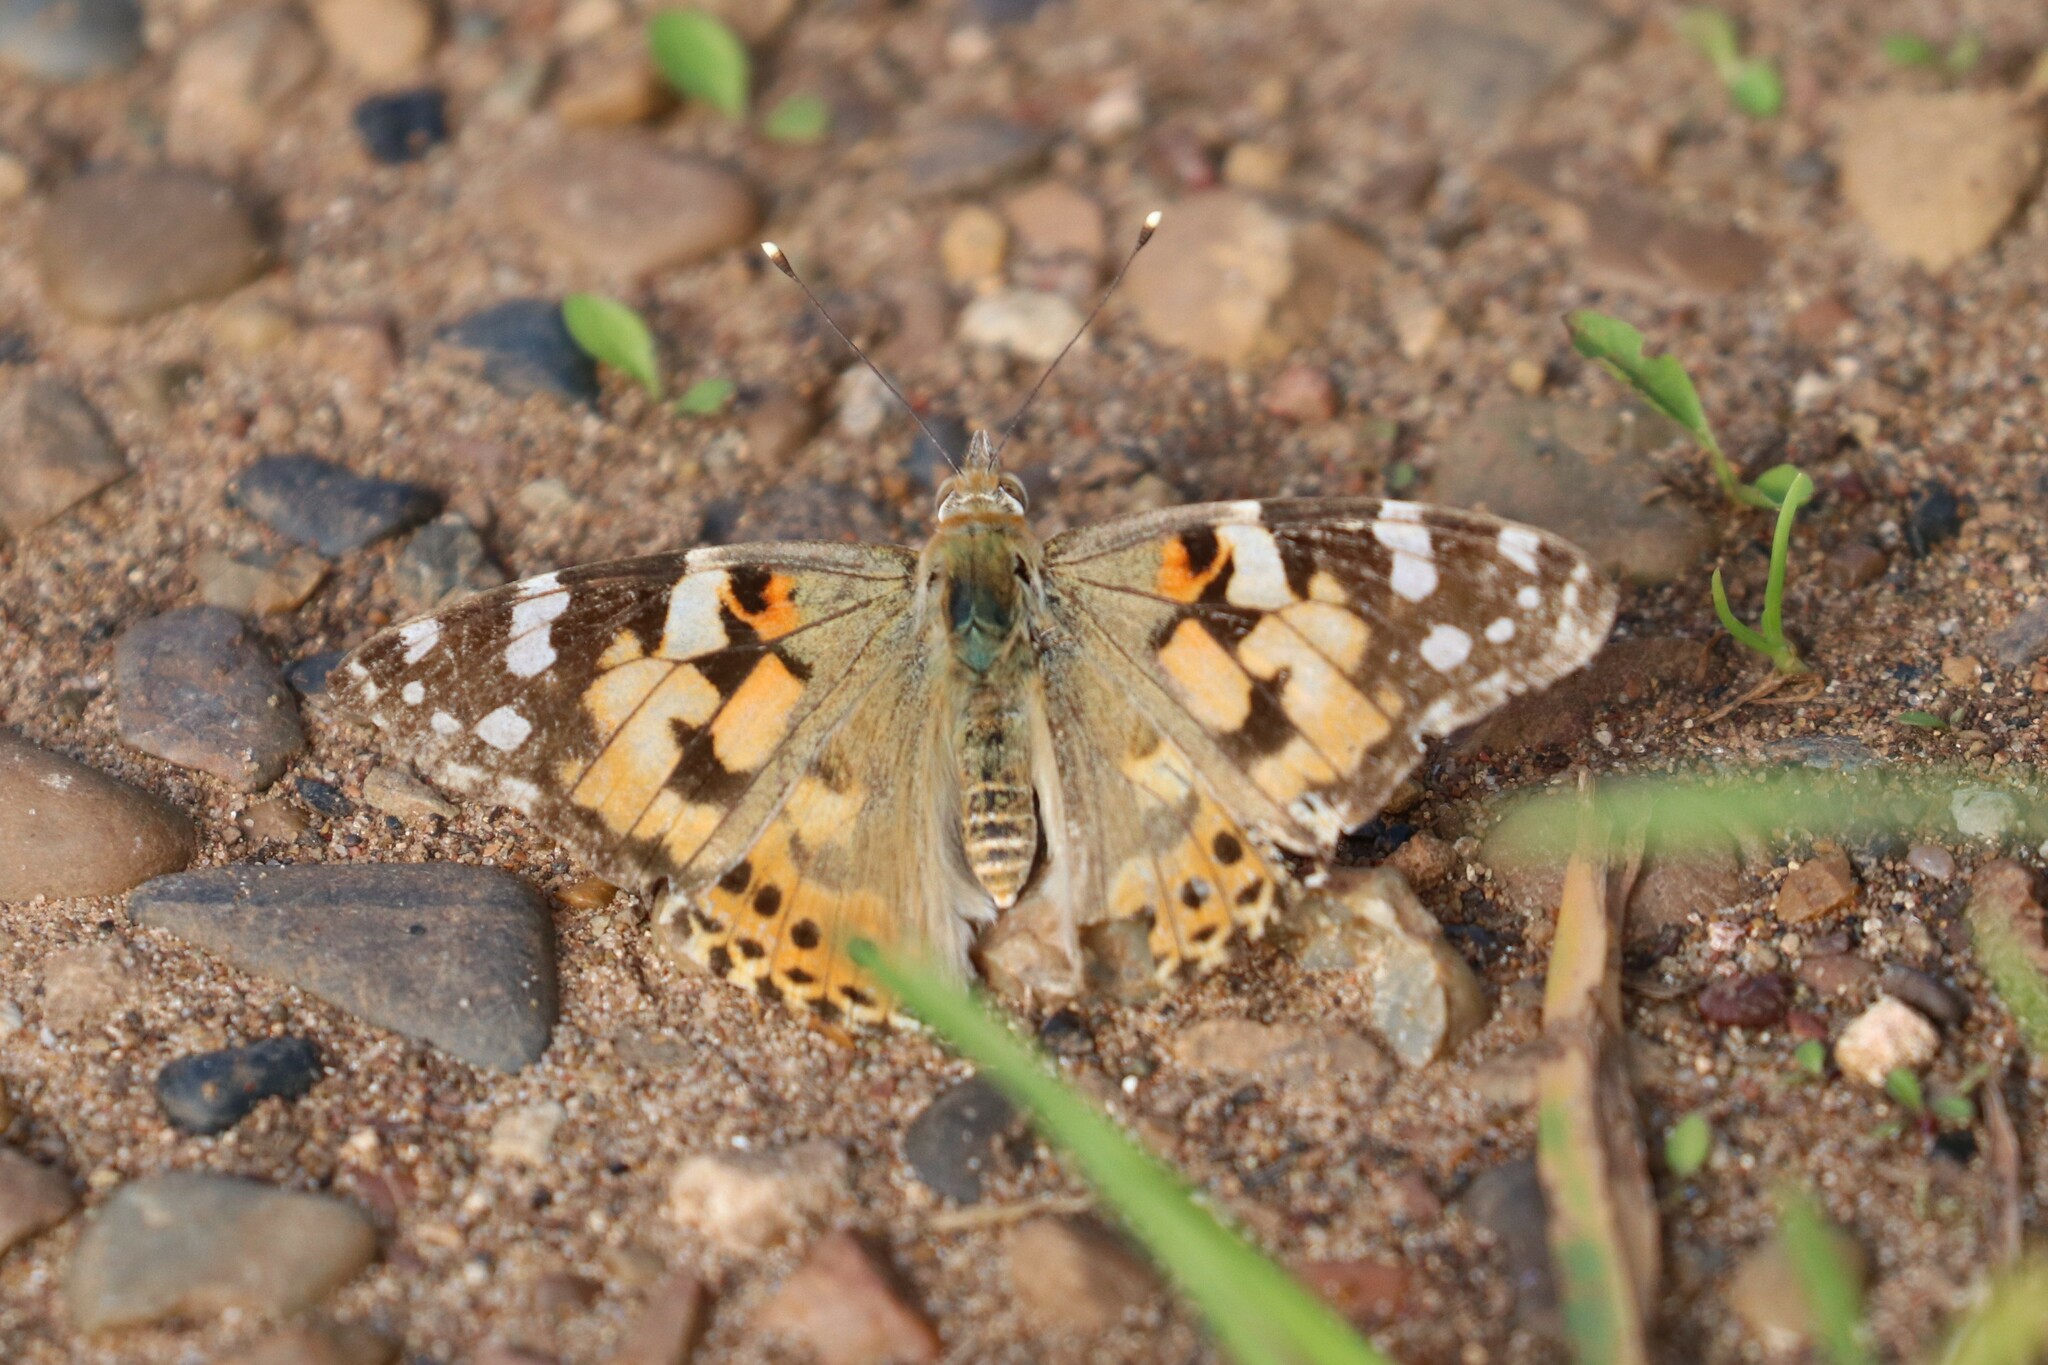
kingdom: Animalia
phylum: Arthropoda
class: Insecta
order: Lepidoptera
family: Nymphalidae
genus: Vanessa
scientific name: Vanessa cardui
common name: Painted lady
